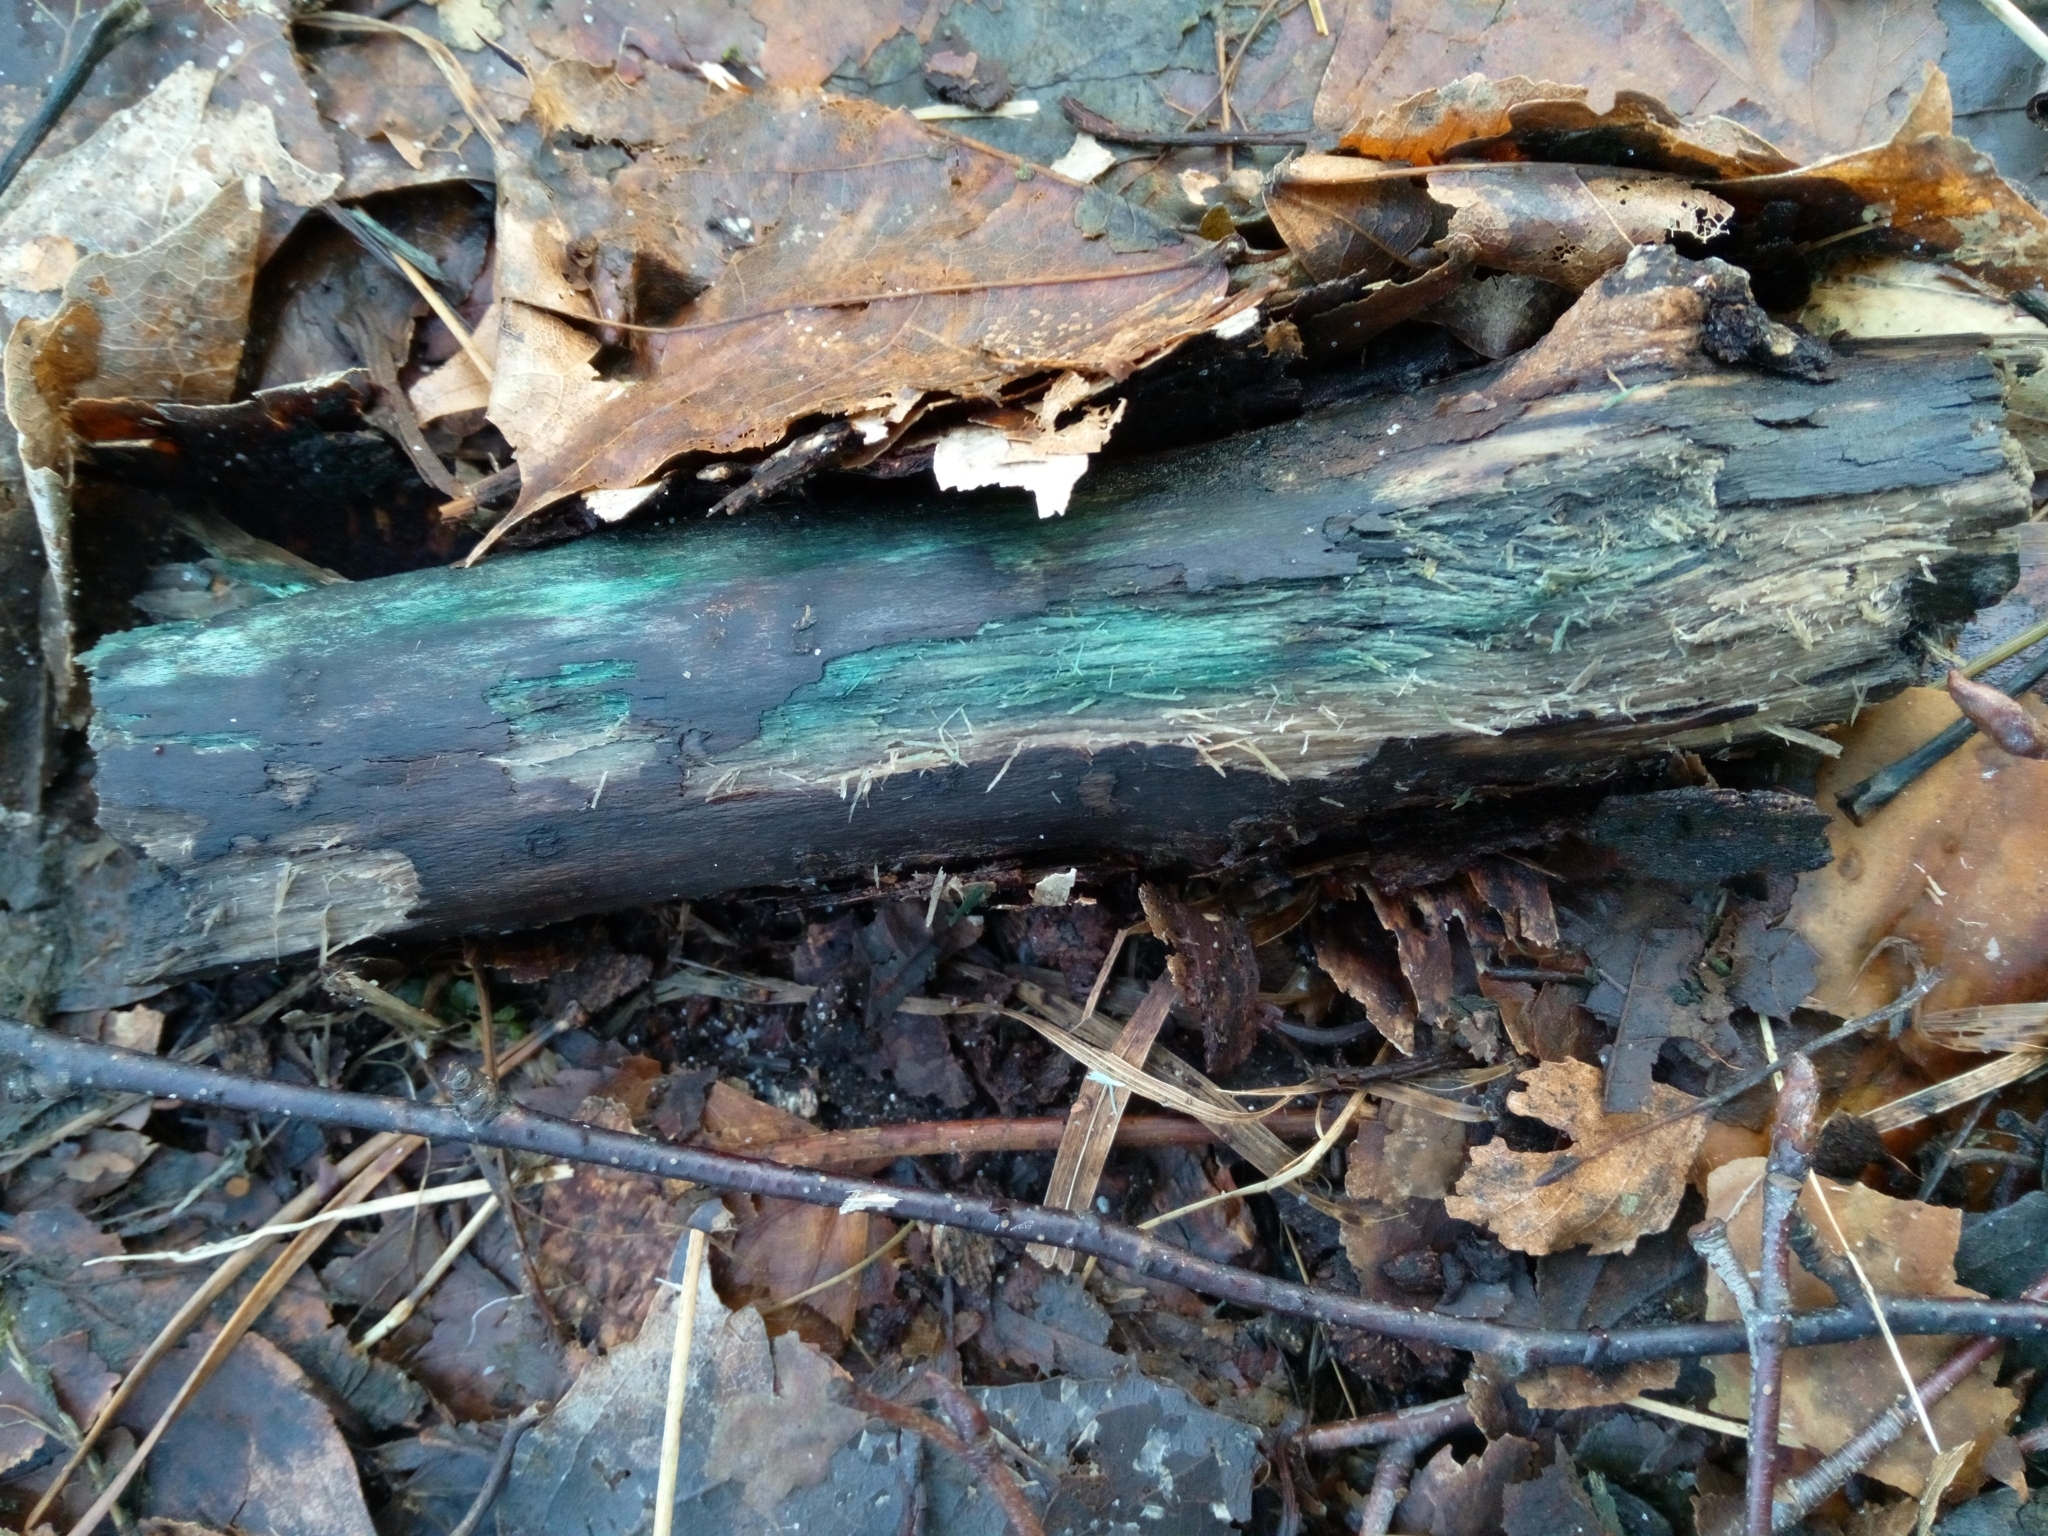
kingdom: Fungi
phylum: Ascomycota
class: Leotiomycetes
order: Helotiales
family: Chlorociboriaceae
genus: Chlorociboria
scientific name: Chlorociboria
